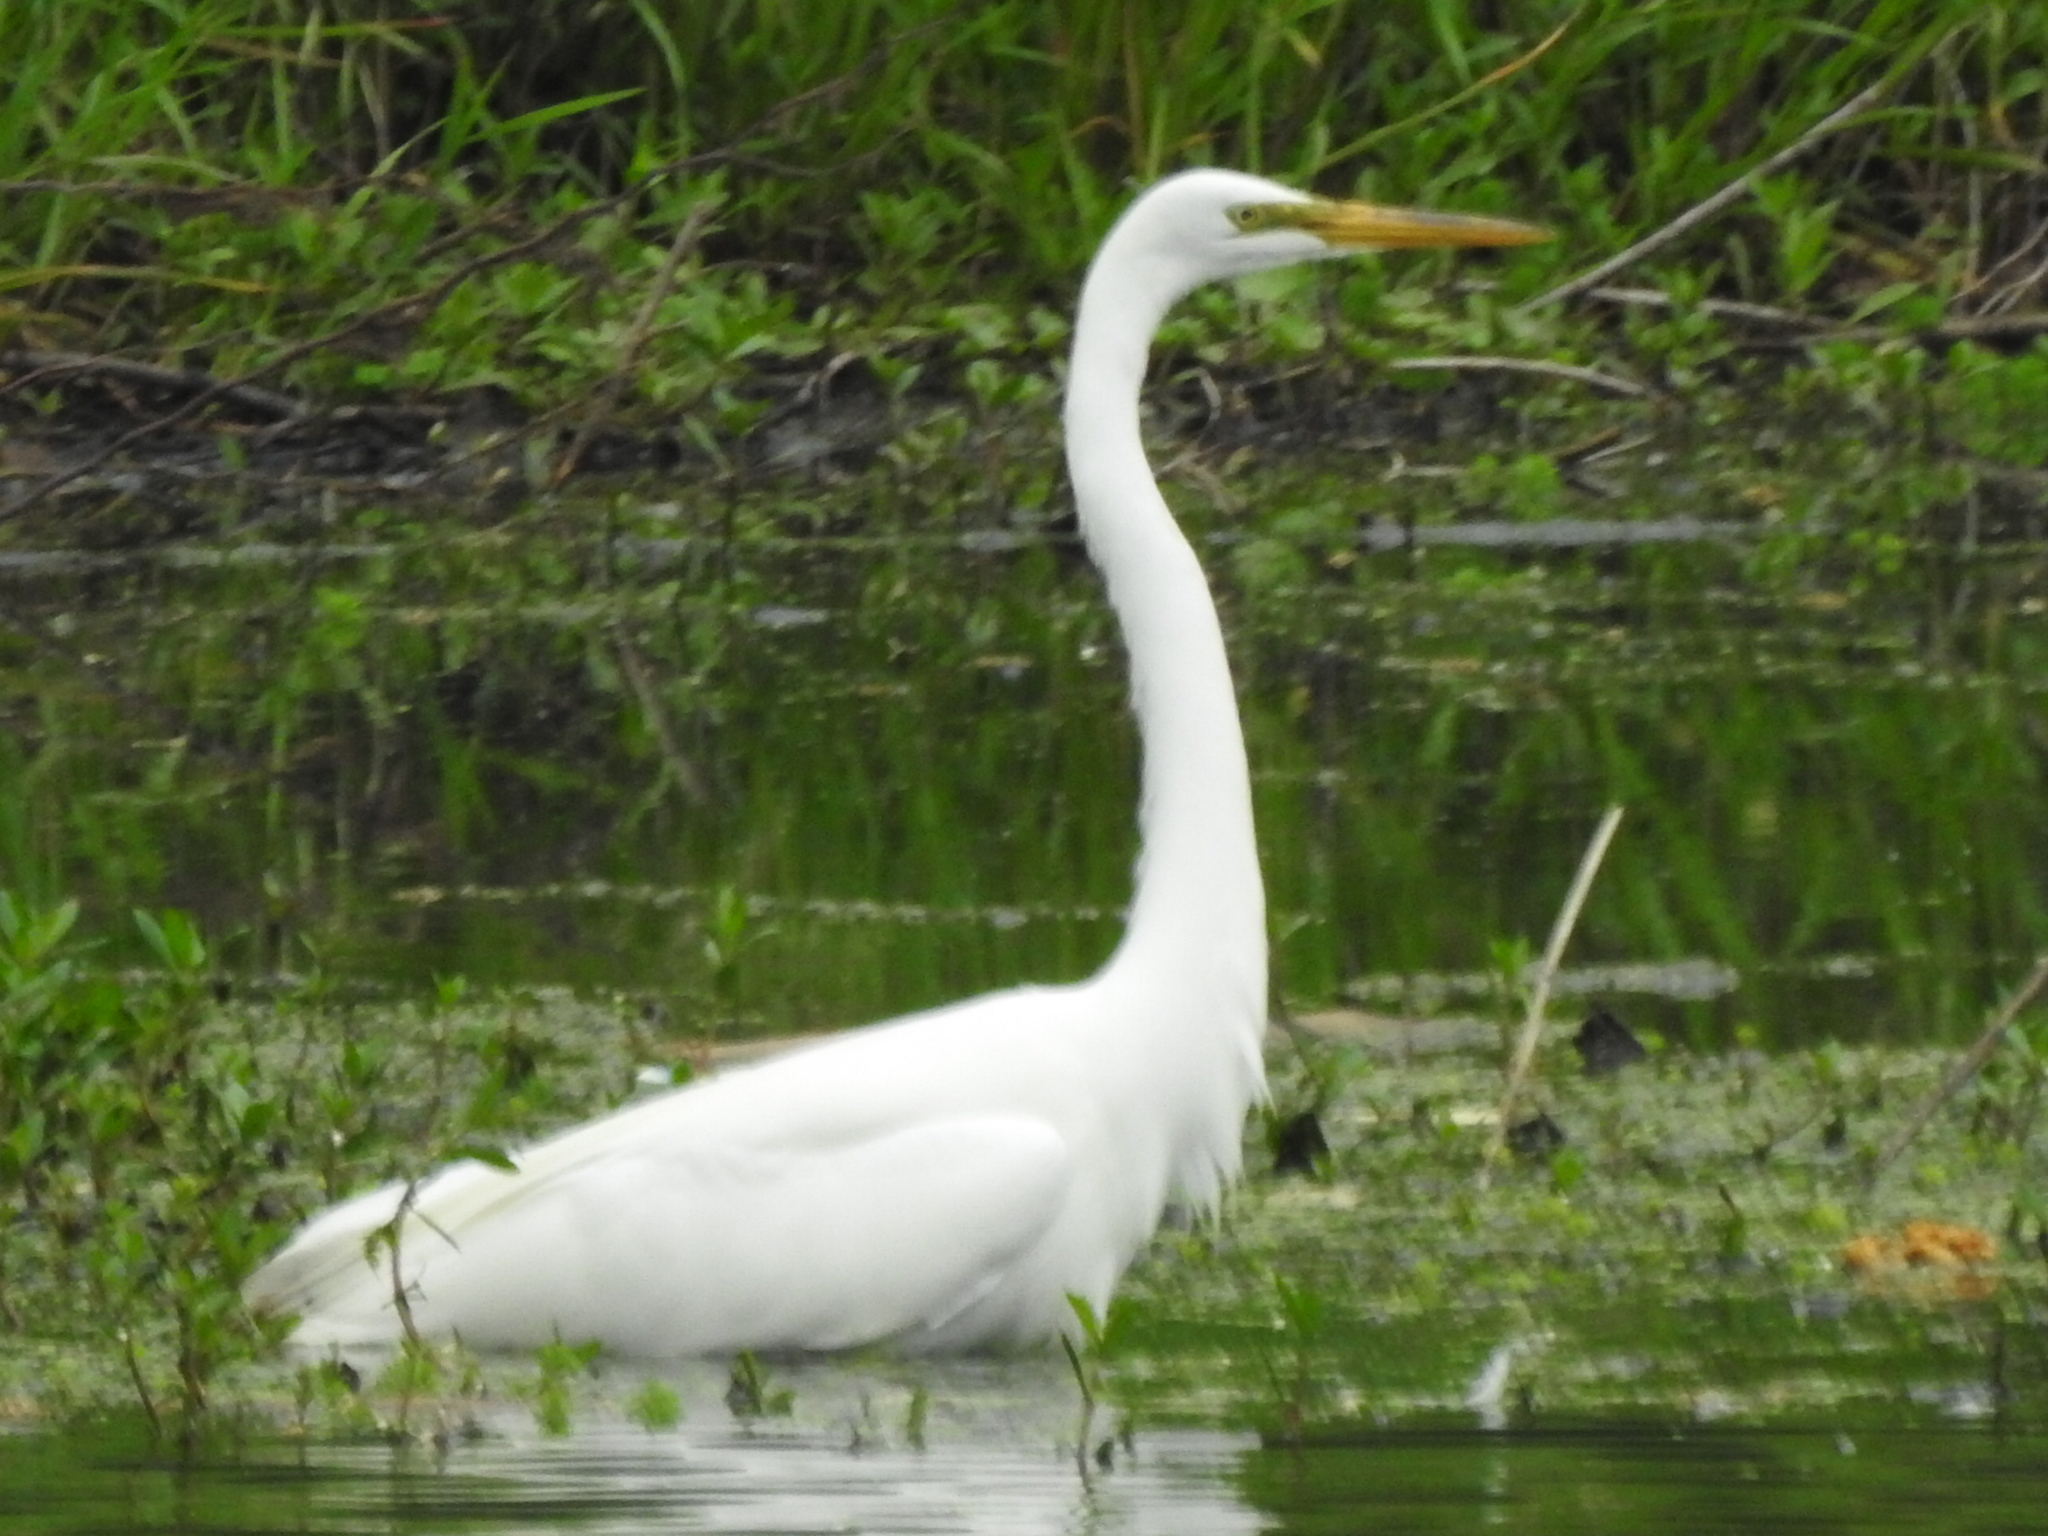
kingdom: Animalia
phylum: Chordata
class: Aves
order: Pelecaniformes
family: Ardeidae
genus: Ardea
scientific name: Ardea alba
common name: Great egret
